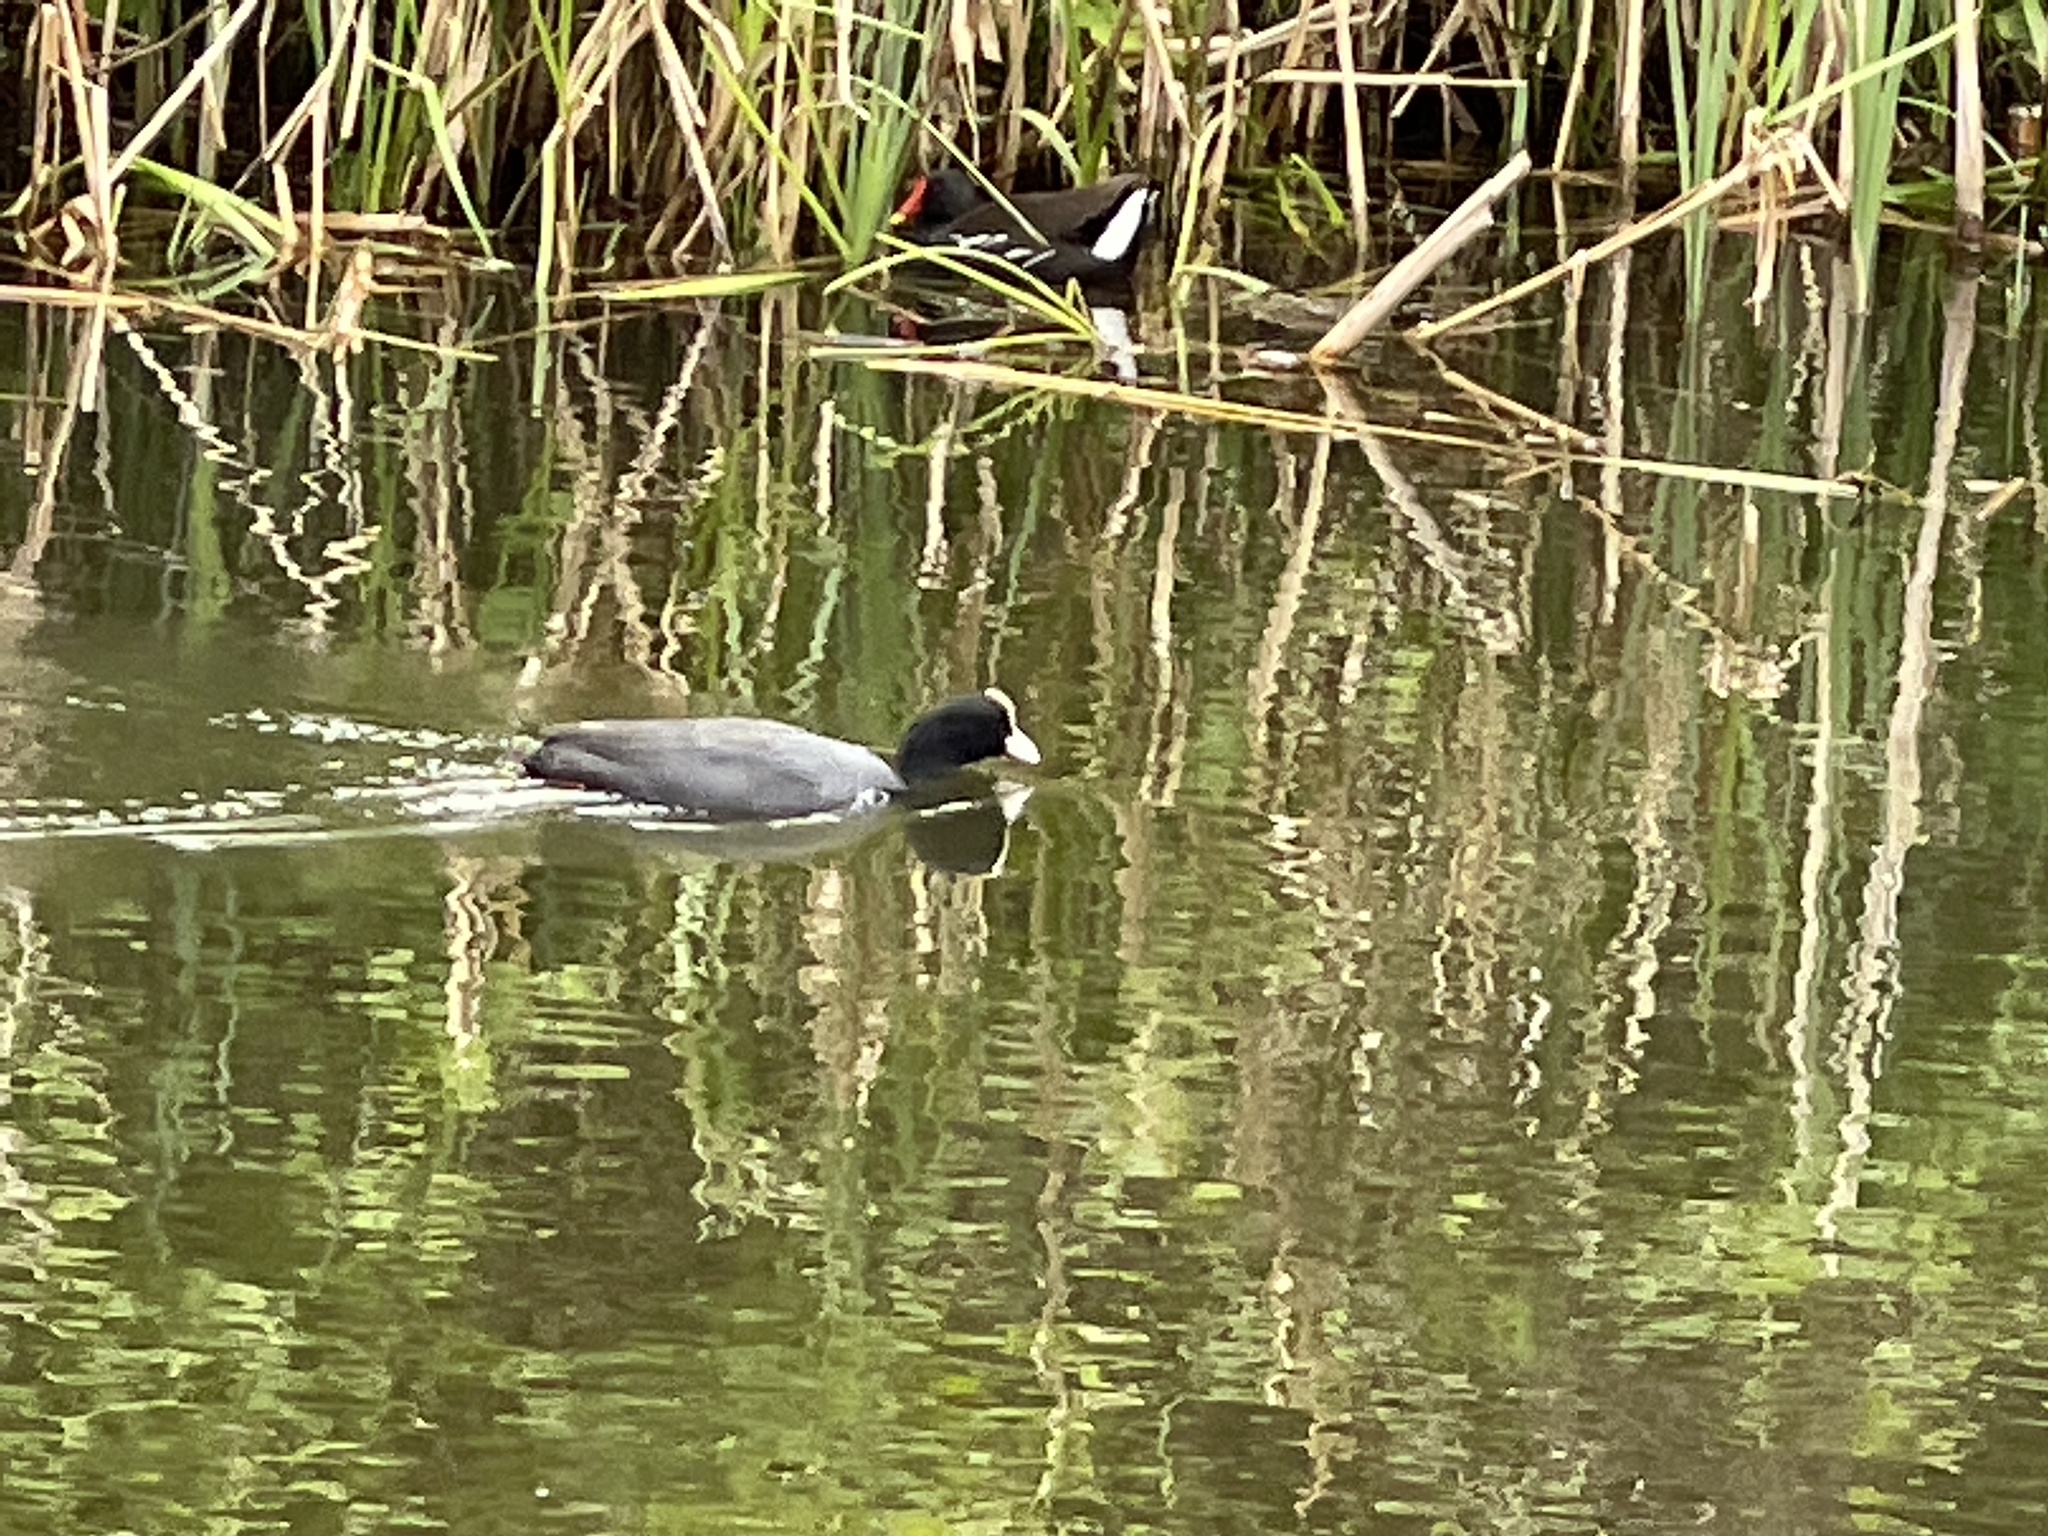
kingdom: Animalia
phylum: Chordata
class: Aves
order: Gruiformes
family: Rallidae
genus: Fulica
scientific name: Fulica atra
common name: Eurasian coot
